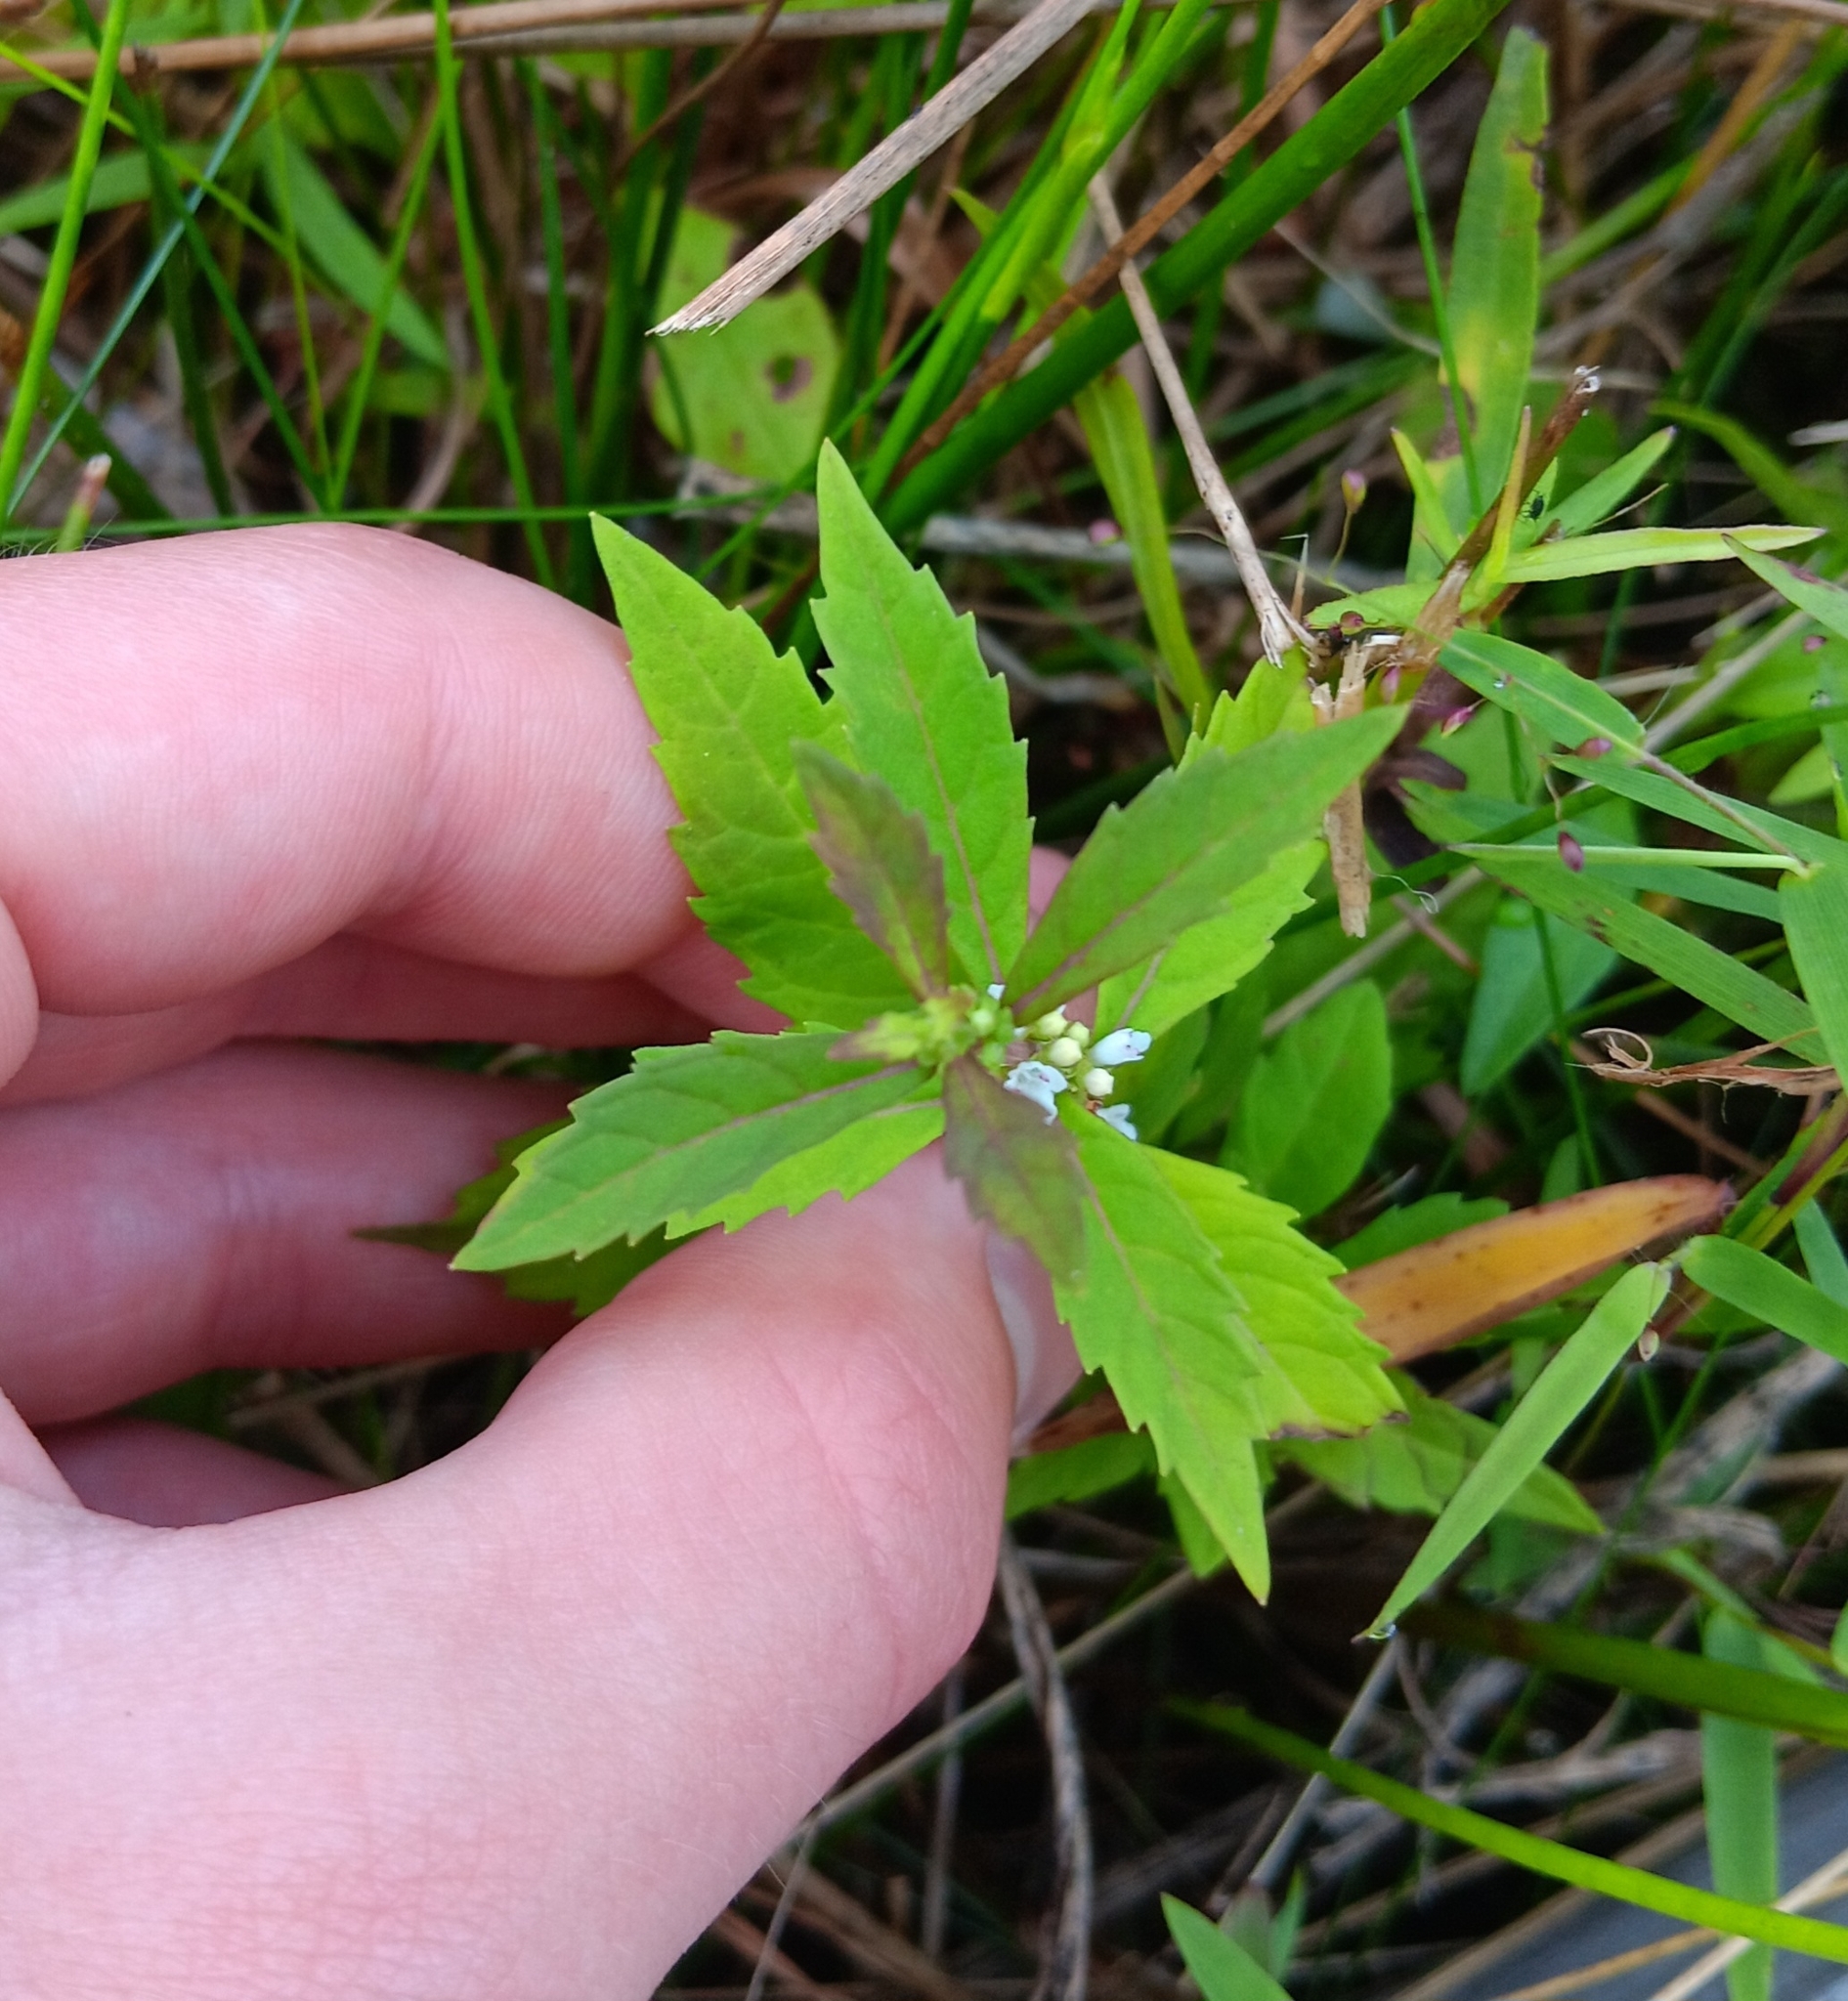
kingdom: Plantae
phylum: Tracheophyta
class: Magnoliopsida
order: Lamiales
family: Lamiaceae
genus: Lycopus
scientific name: Lycopus uniflorus
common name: Northern bugleweed
